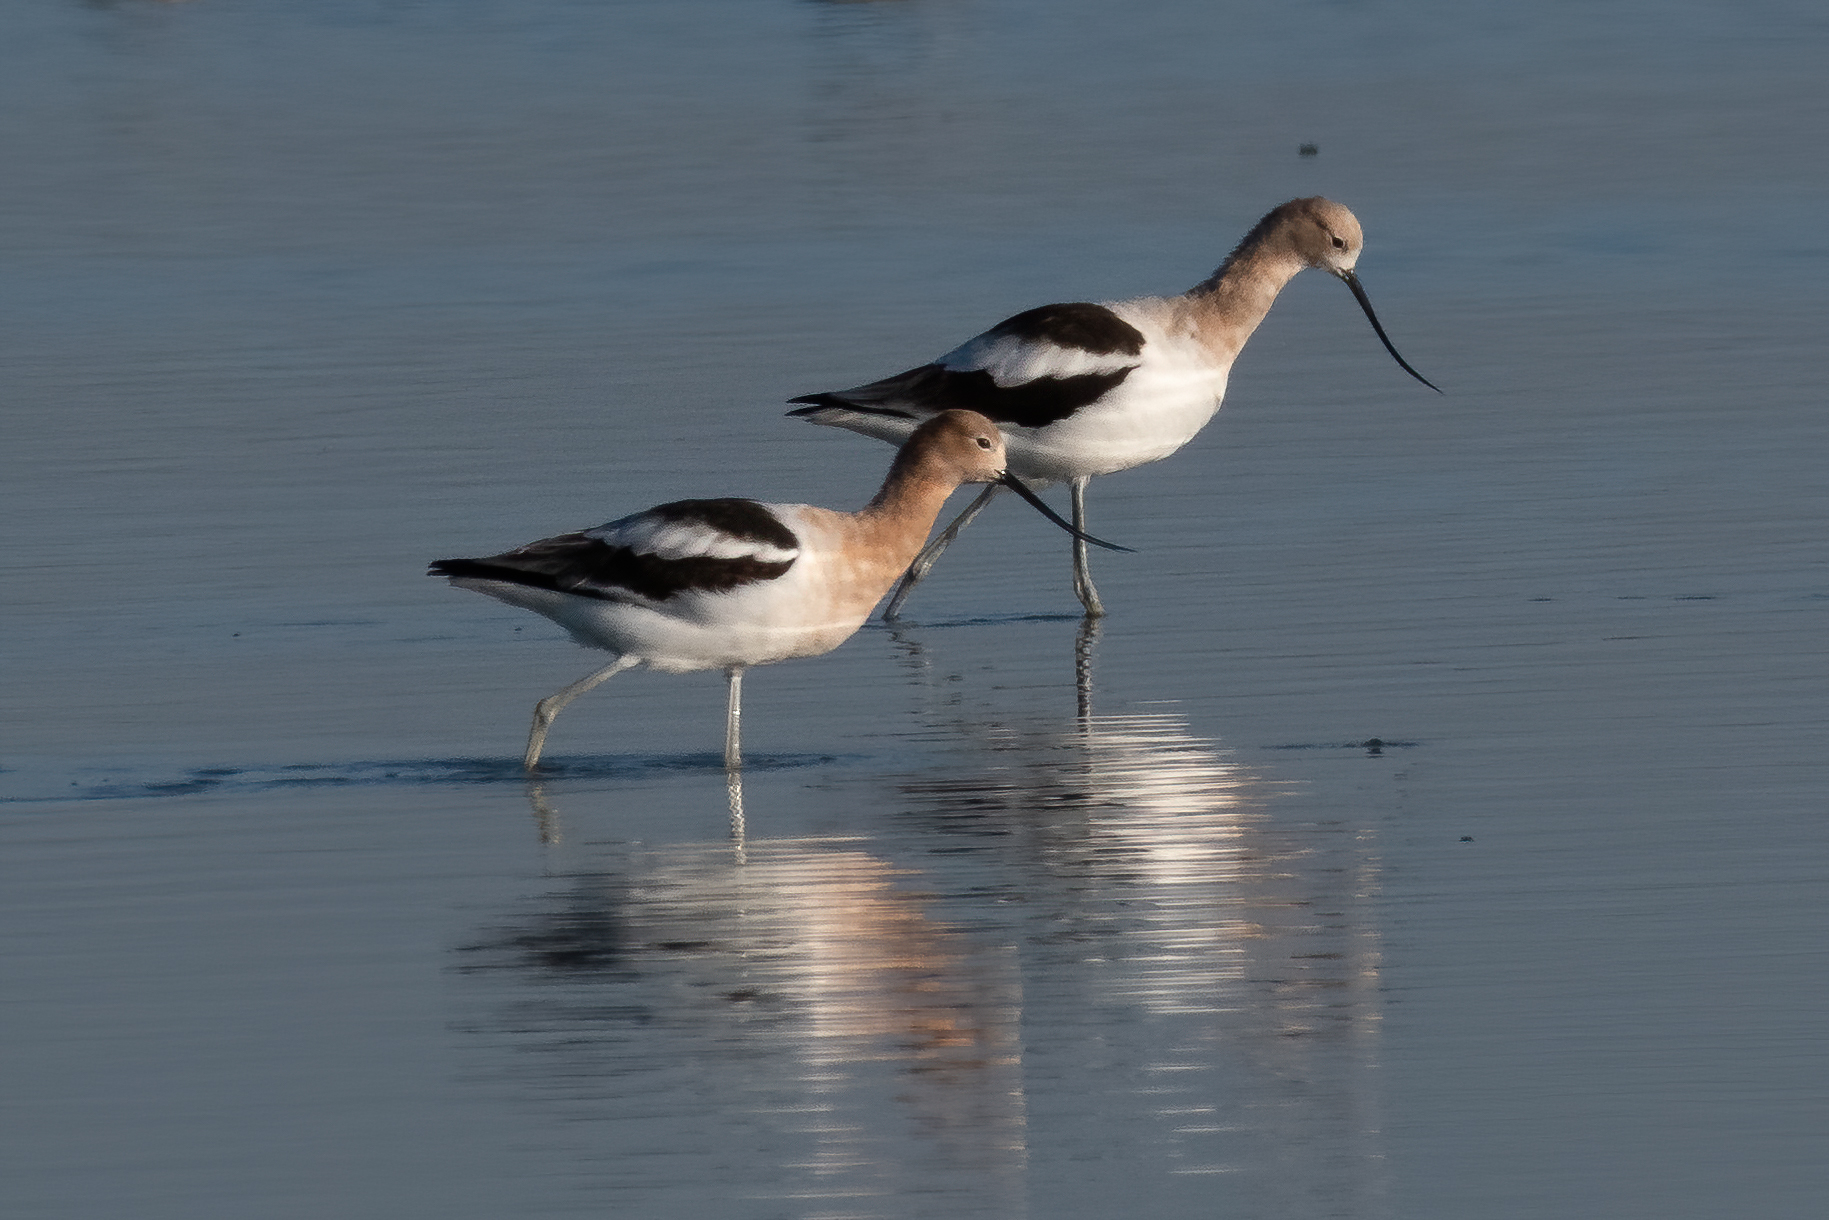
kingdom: Animalia
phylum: Chordata
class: Aves
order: Charadriiformes
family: Recurvirostridae
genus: Recurvirostra
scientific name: Recurvirostra americana
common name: American avocet
